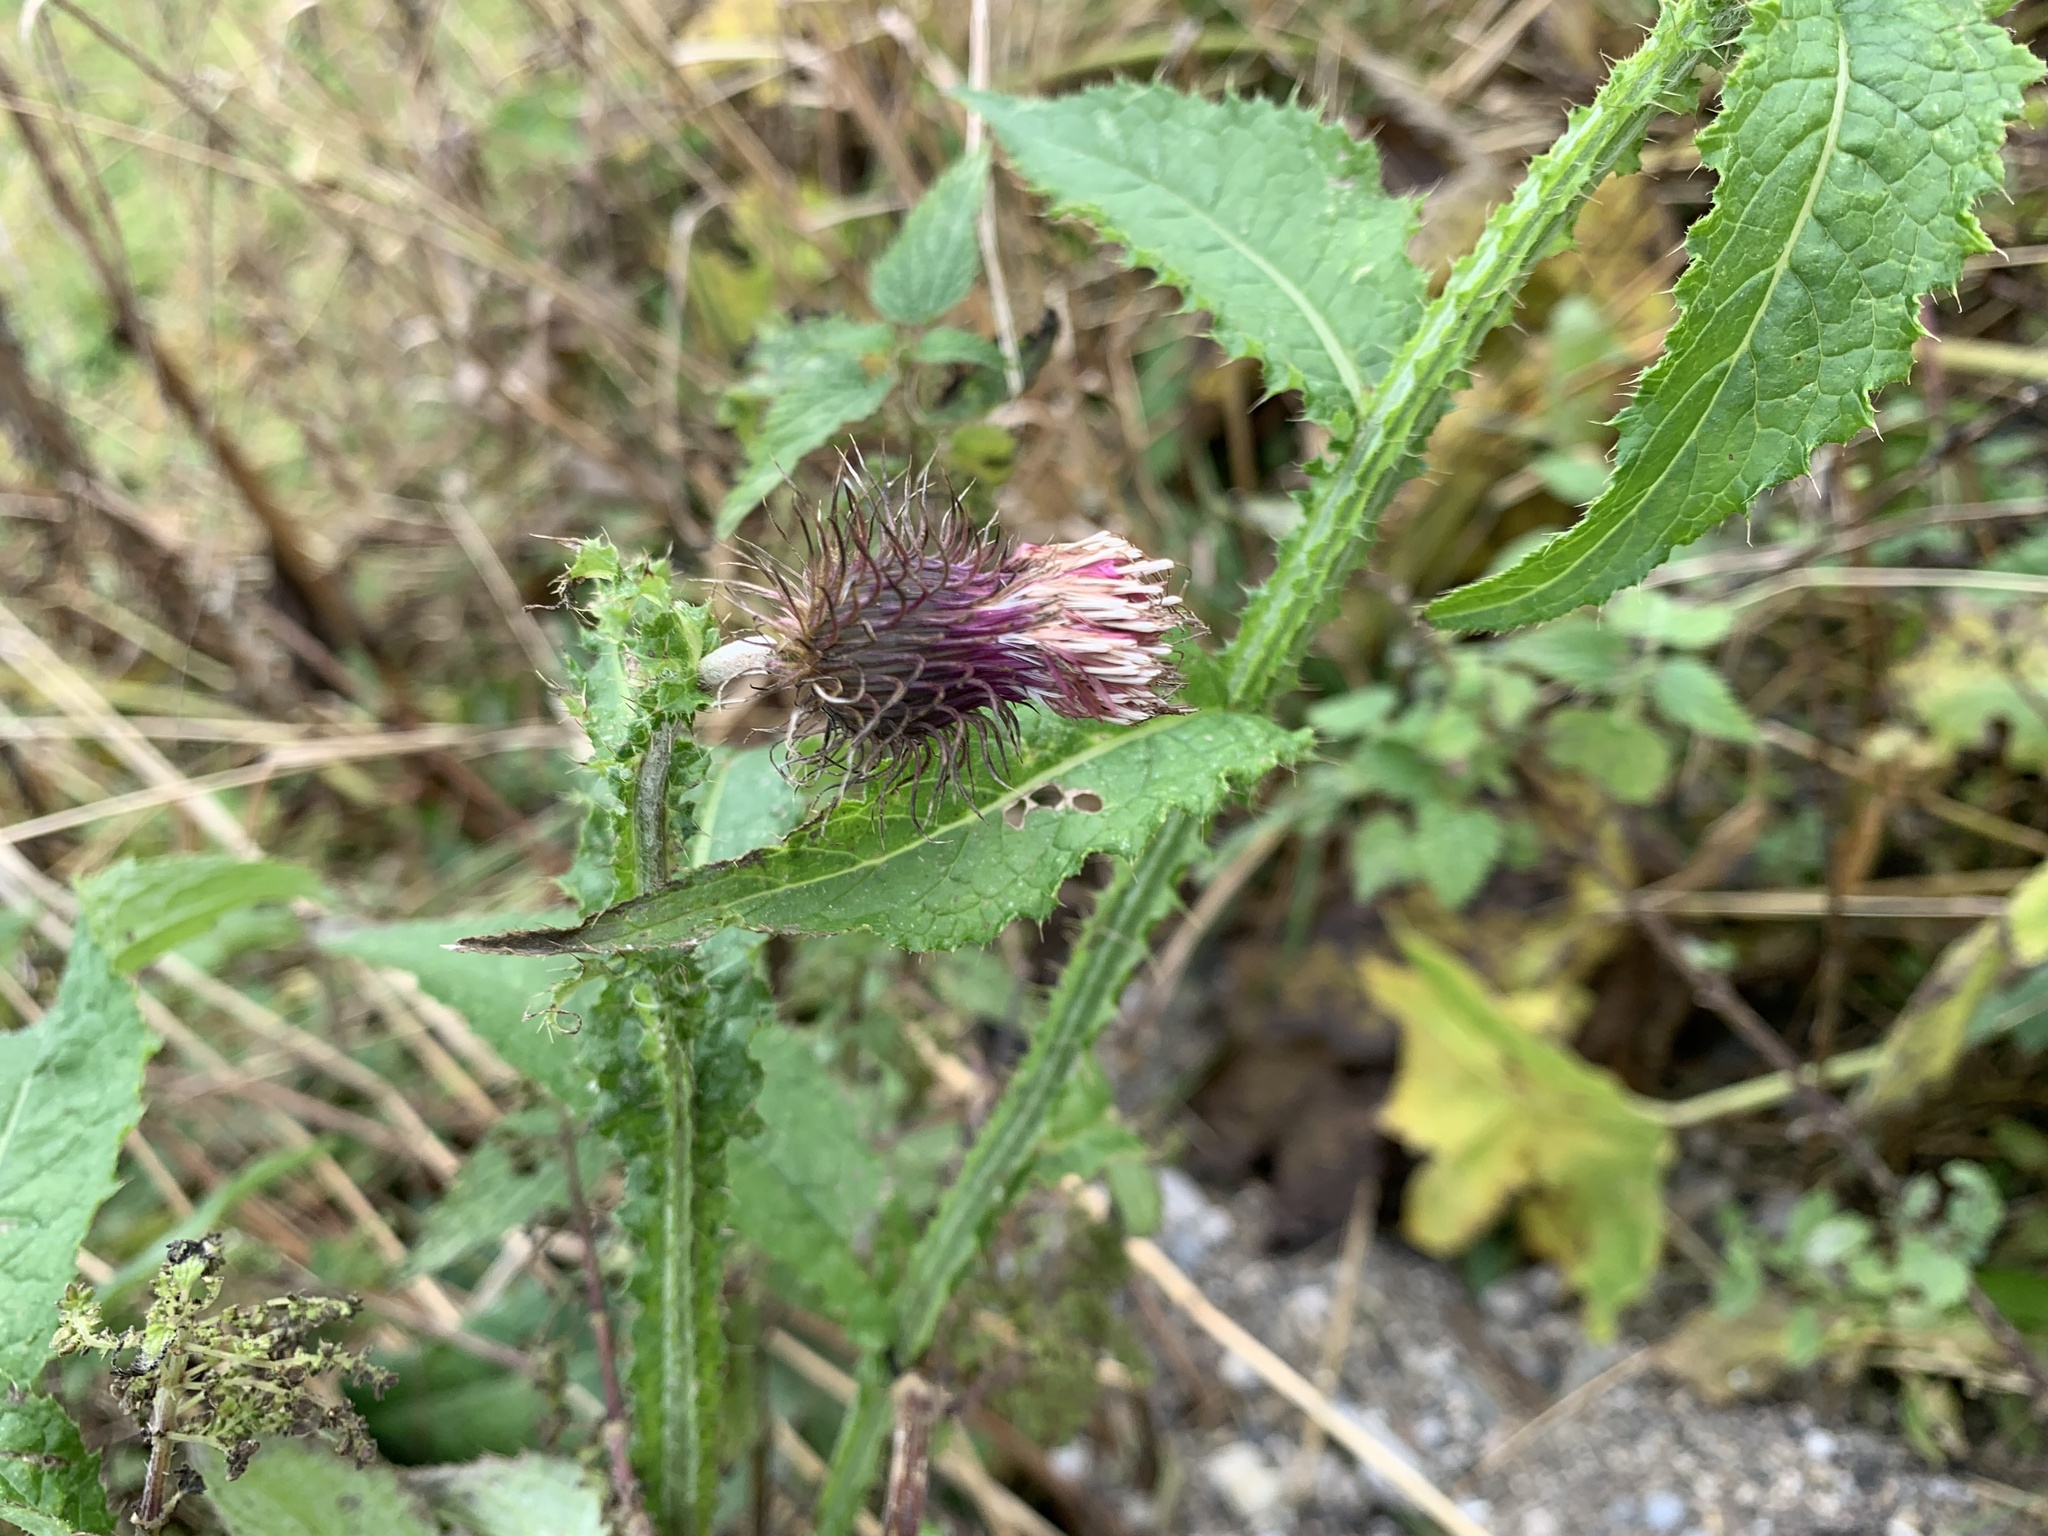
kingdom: Plantae
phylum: Tracheophyta
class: Magnoliopsida
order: Asterales
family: Asteraceae
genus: Carduus
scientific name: Carduus personata
